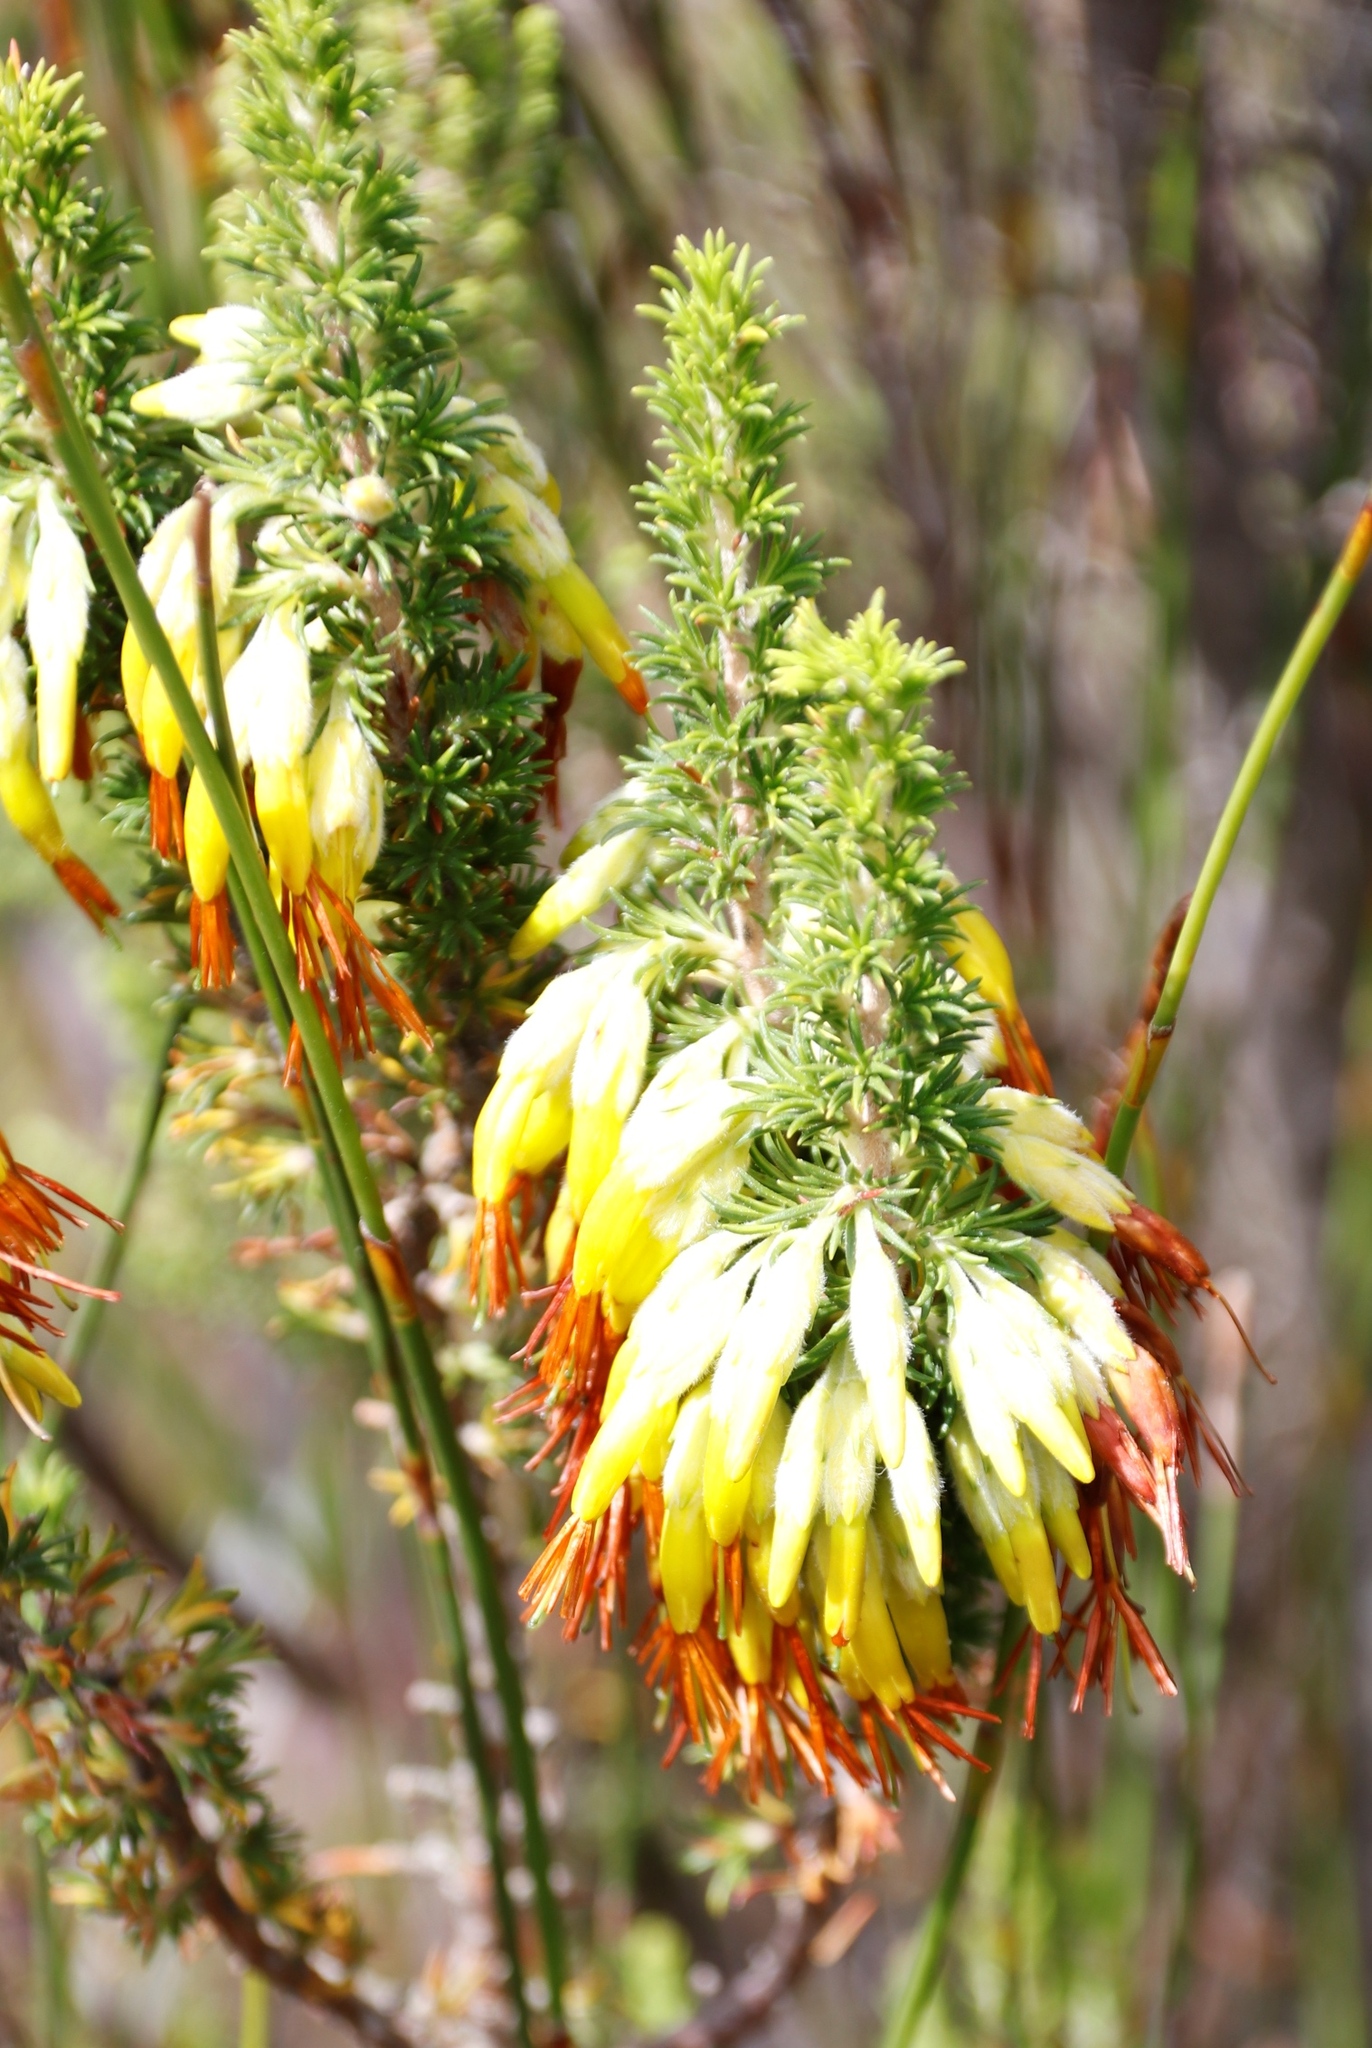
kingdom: Plantae
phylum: Tracheophyta
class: Magnoliopsida
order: Ericales
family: Ericaceae
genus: Erica
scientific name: Erica coccinea
